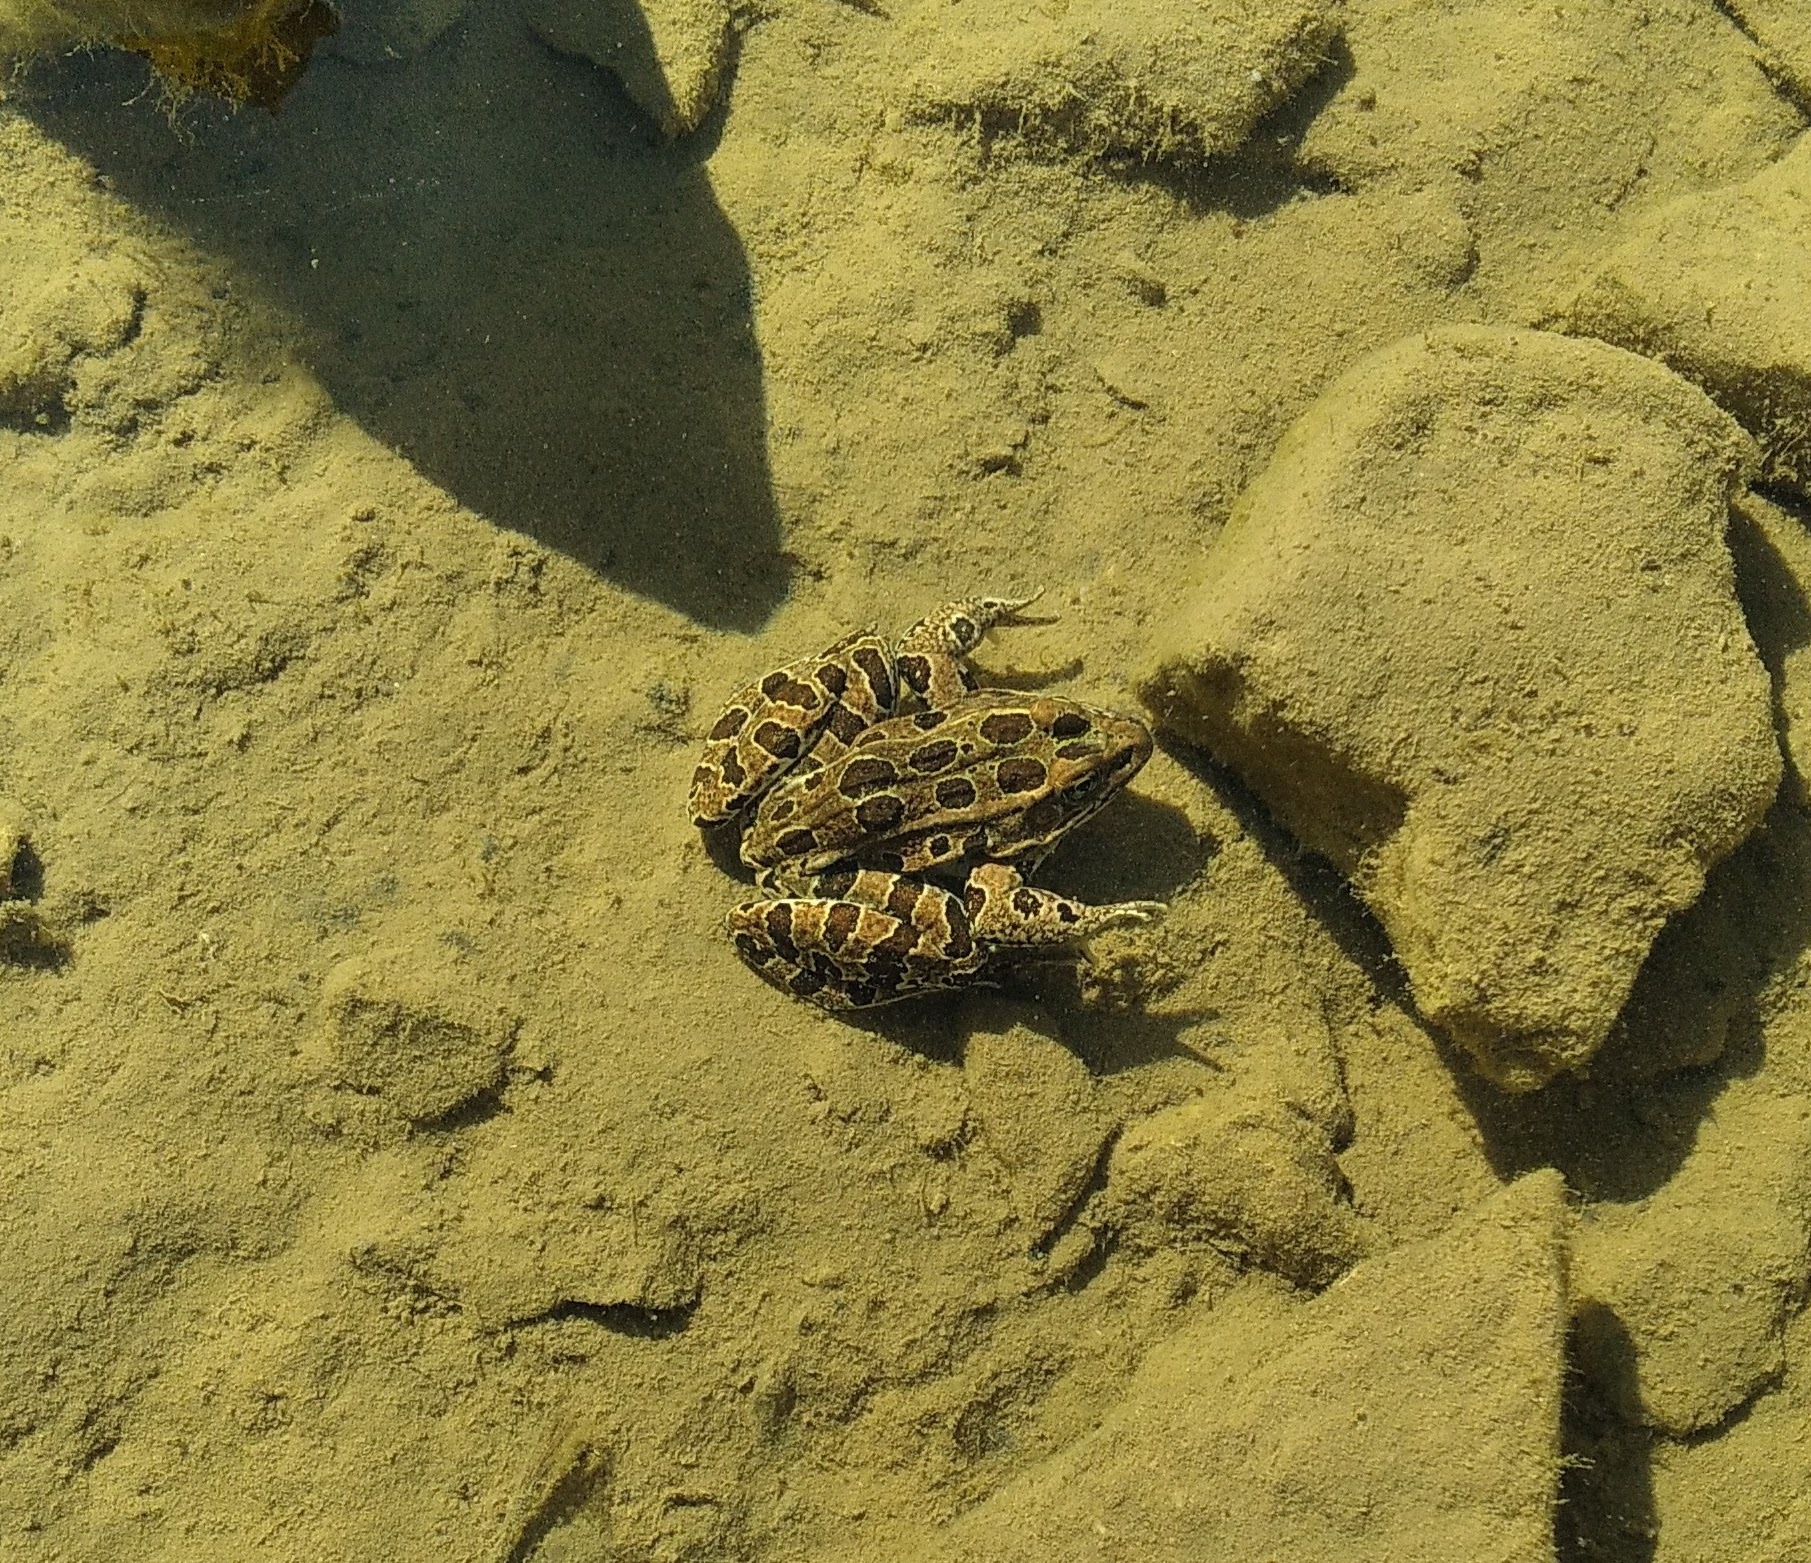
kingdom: Animalia
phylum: Chordata
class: Amphibia
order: Anura
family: Ranidae
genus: Lithobates
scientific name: Lithobates pipiens
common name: Northern leopard frog
